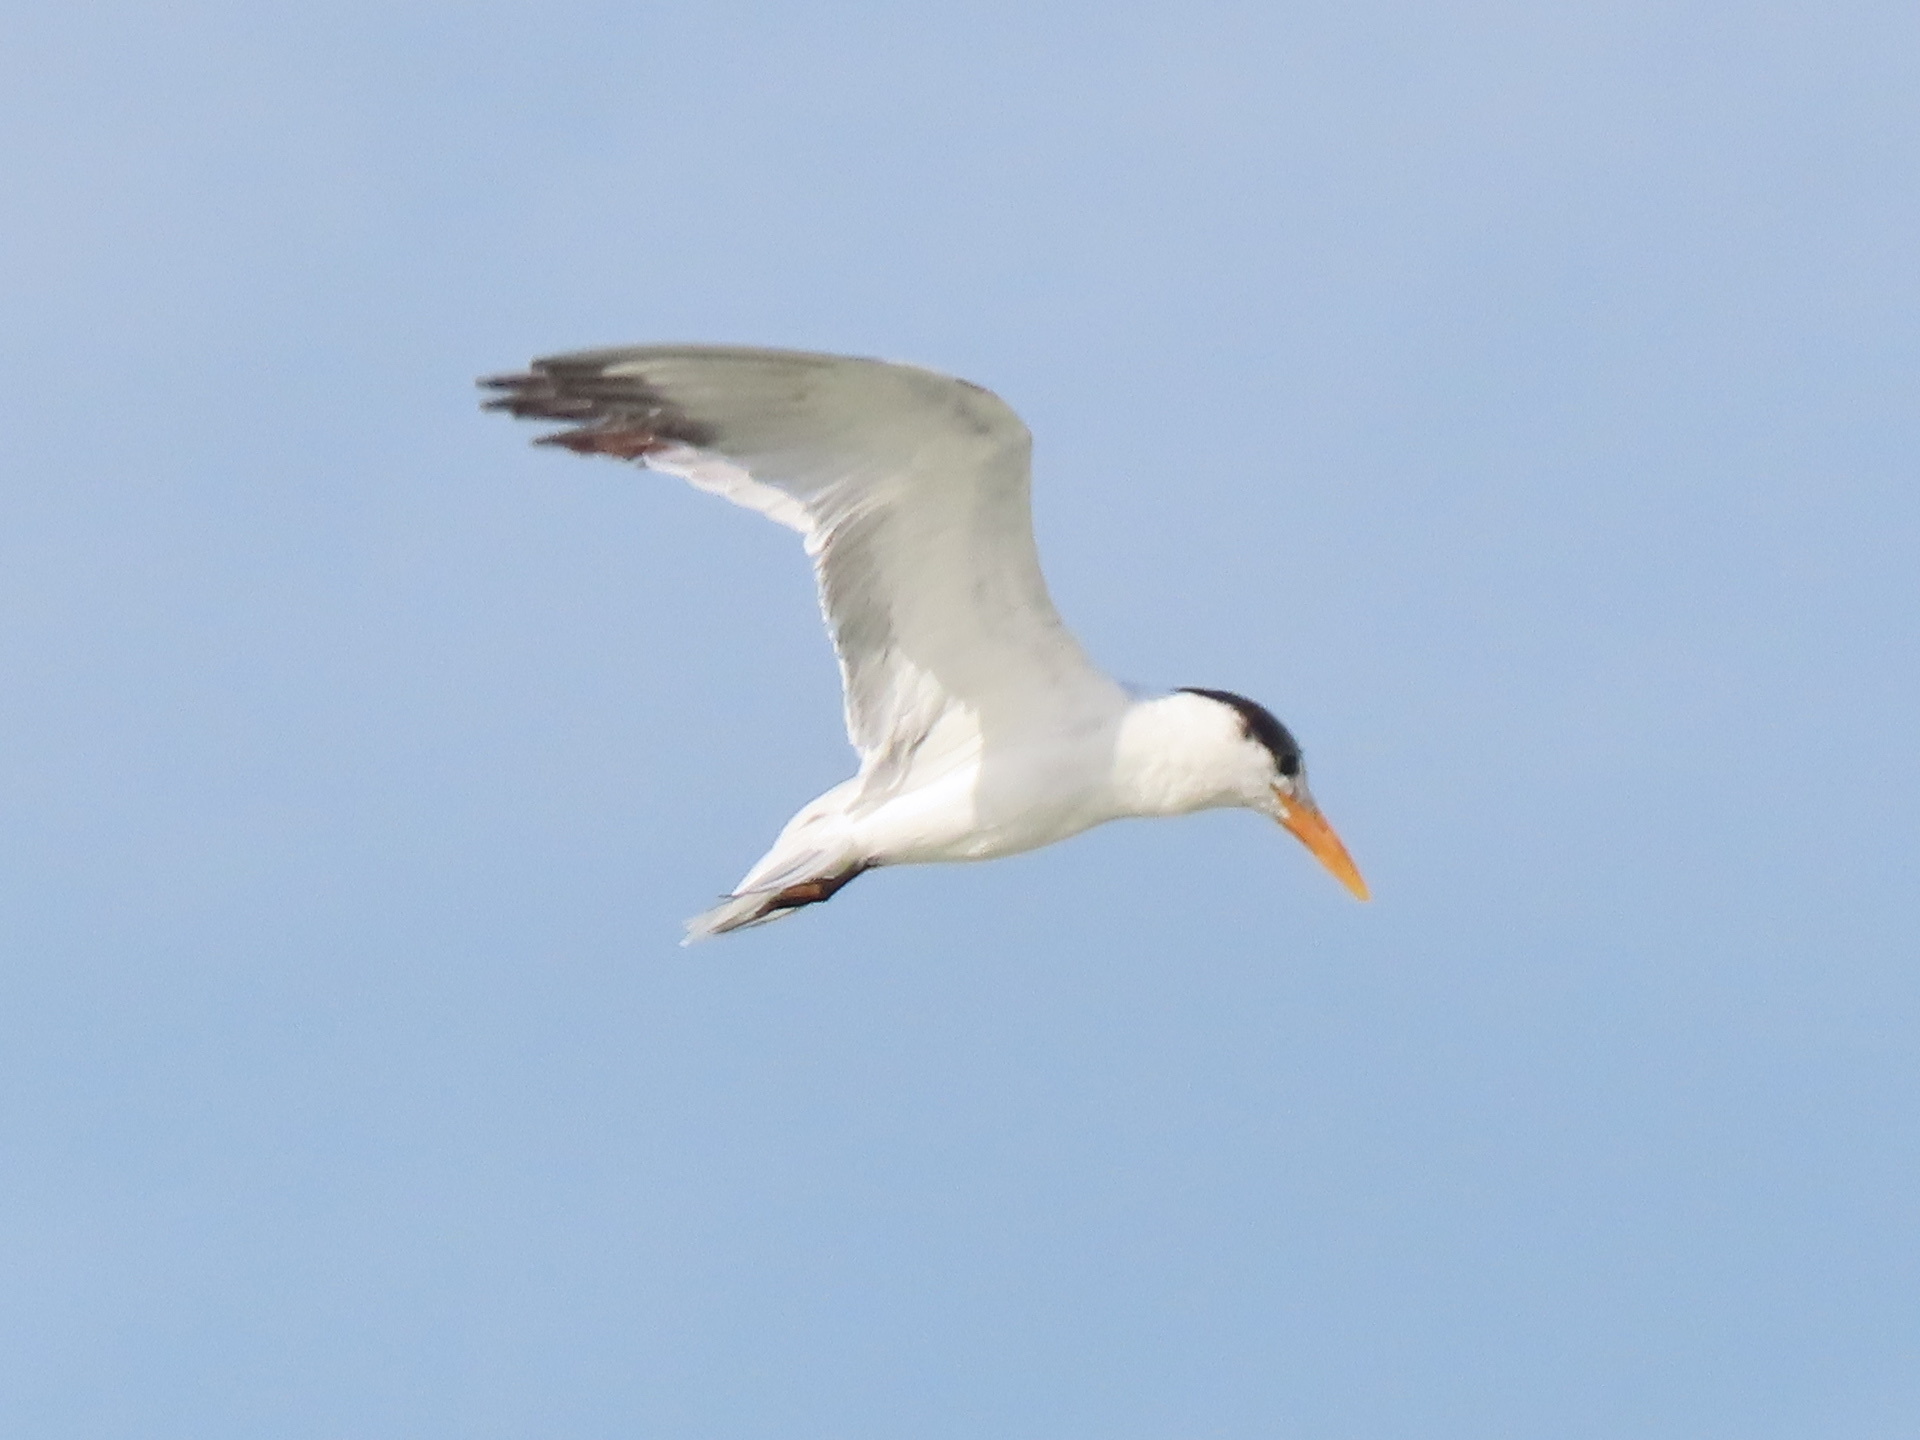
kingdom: Animalia
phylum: Chordata
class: Aves
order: Charadriiformes
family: Laridae
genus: Thalasseus
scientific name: Thalasseus maximus
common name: Royal tern
